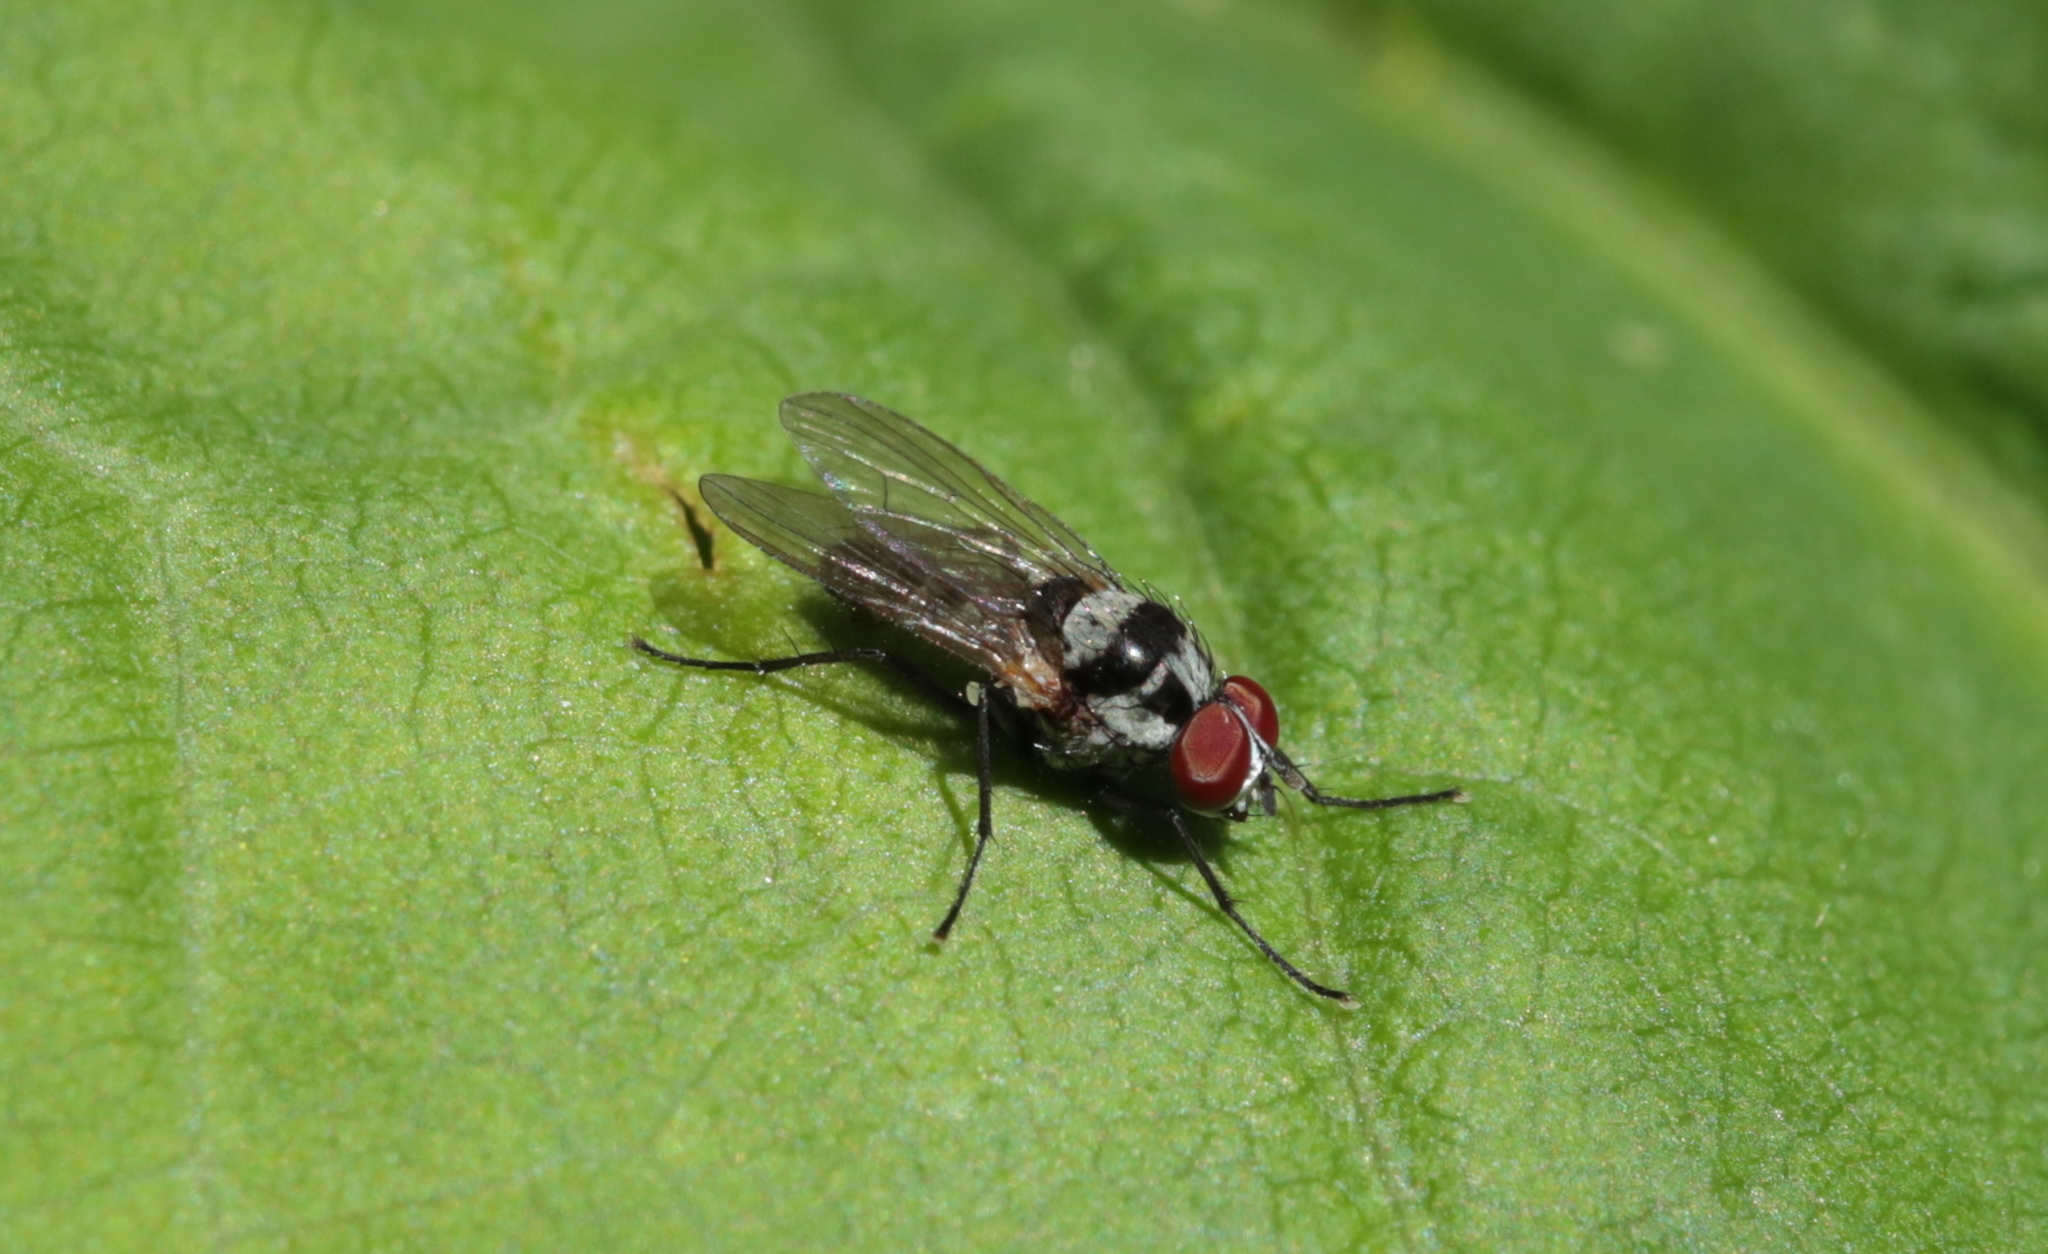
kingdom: Animalia
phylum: Arthropoda
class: Insecta
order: Diptera
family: Anthomyiidae
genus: Anthomyia
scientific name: Anthomyia oculifera
